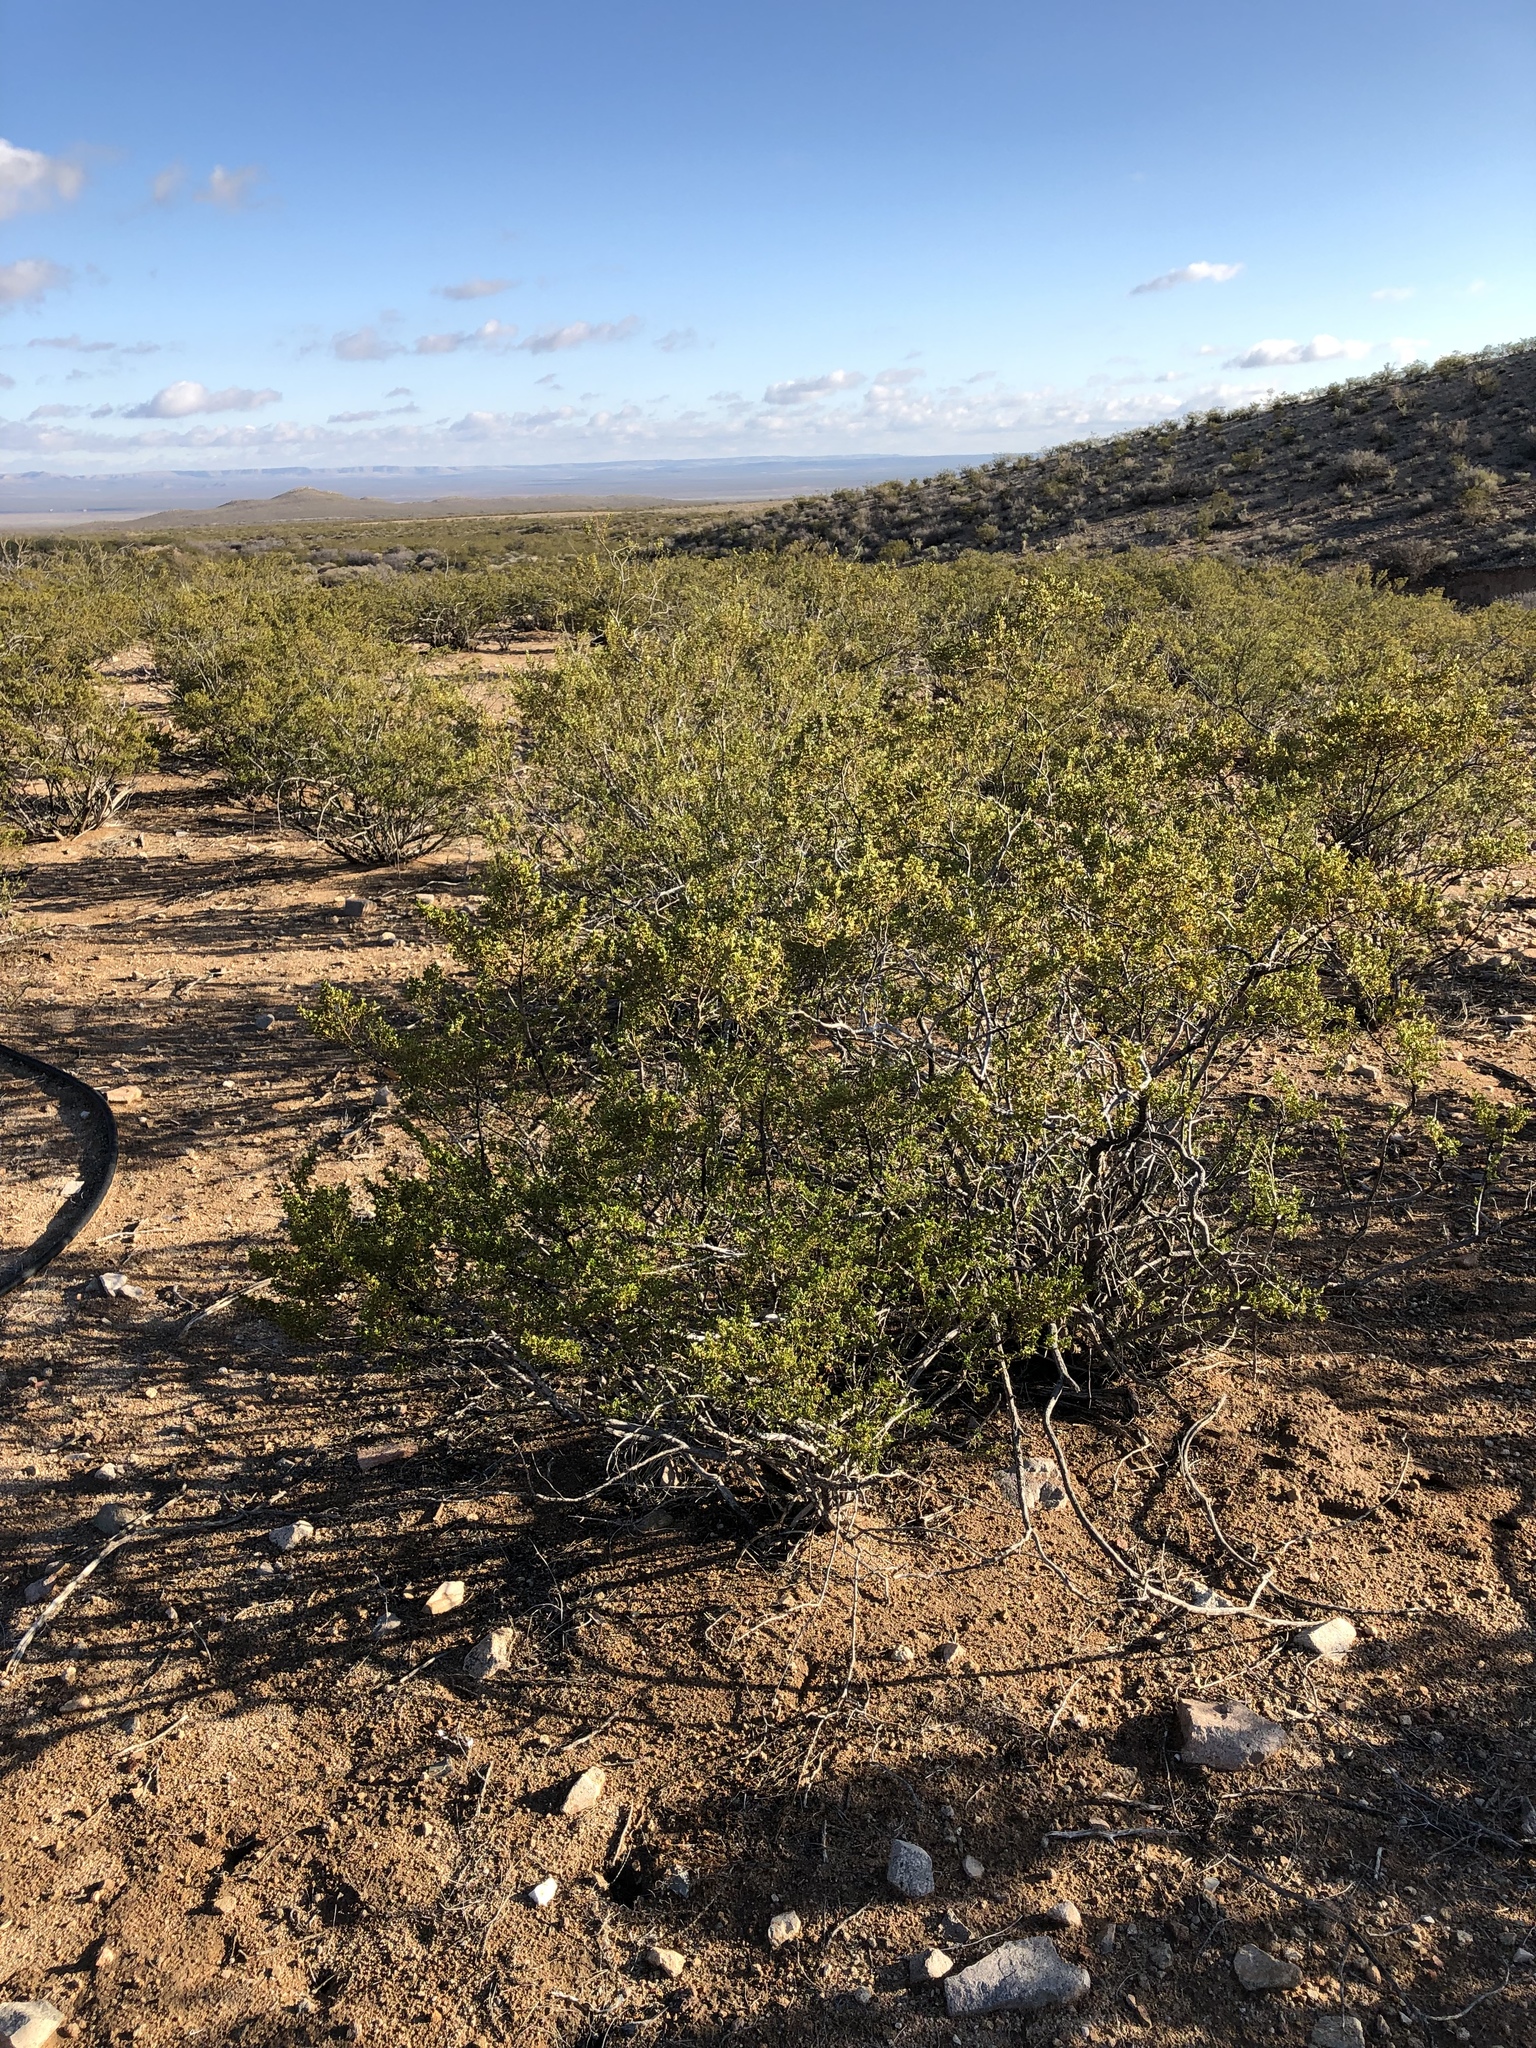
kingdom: Plantae
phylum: Tracheophyta
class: Magnoliopsida
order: Zygophyllales
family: Zygophyllaceae
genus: Larrea
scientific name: Larrea tridentata
